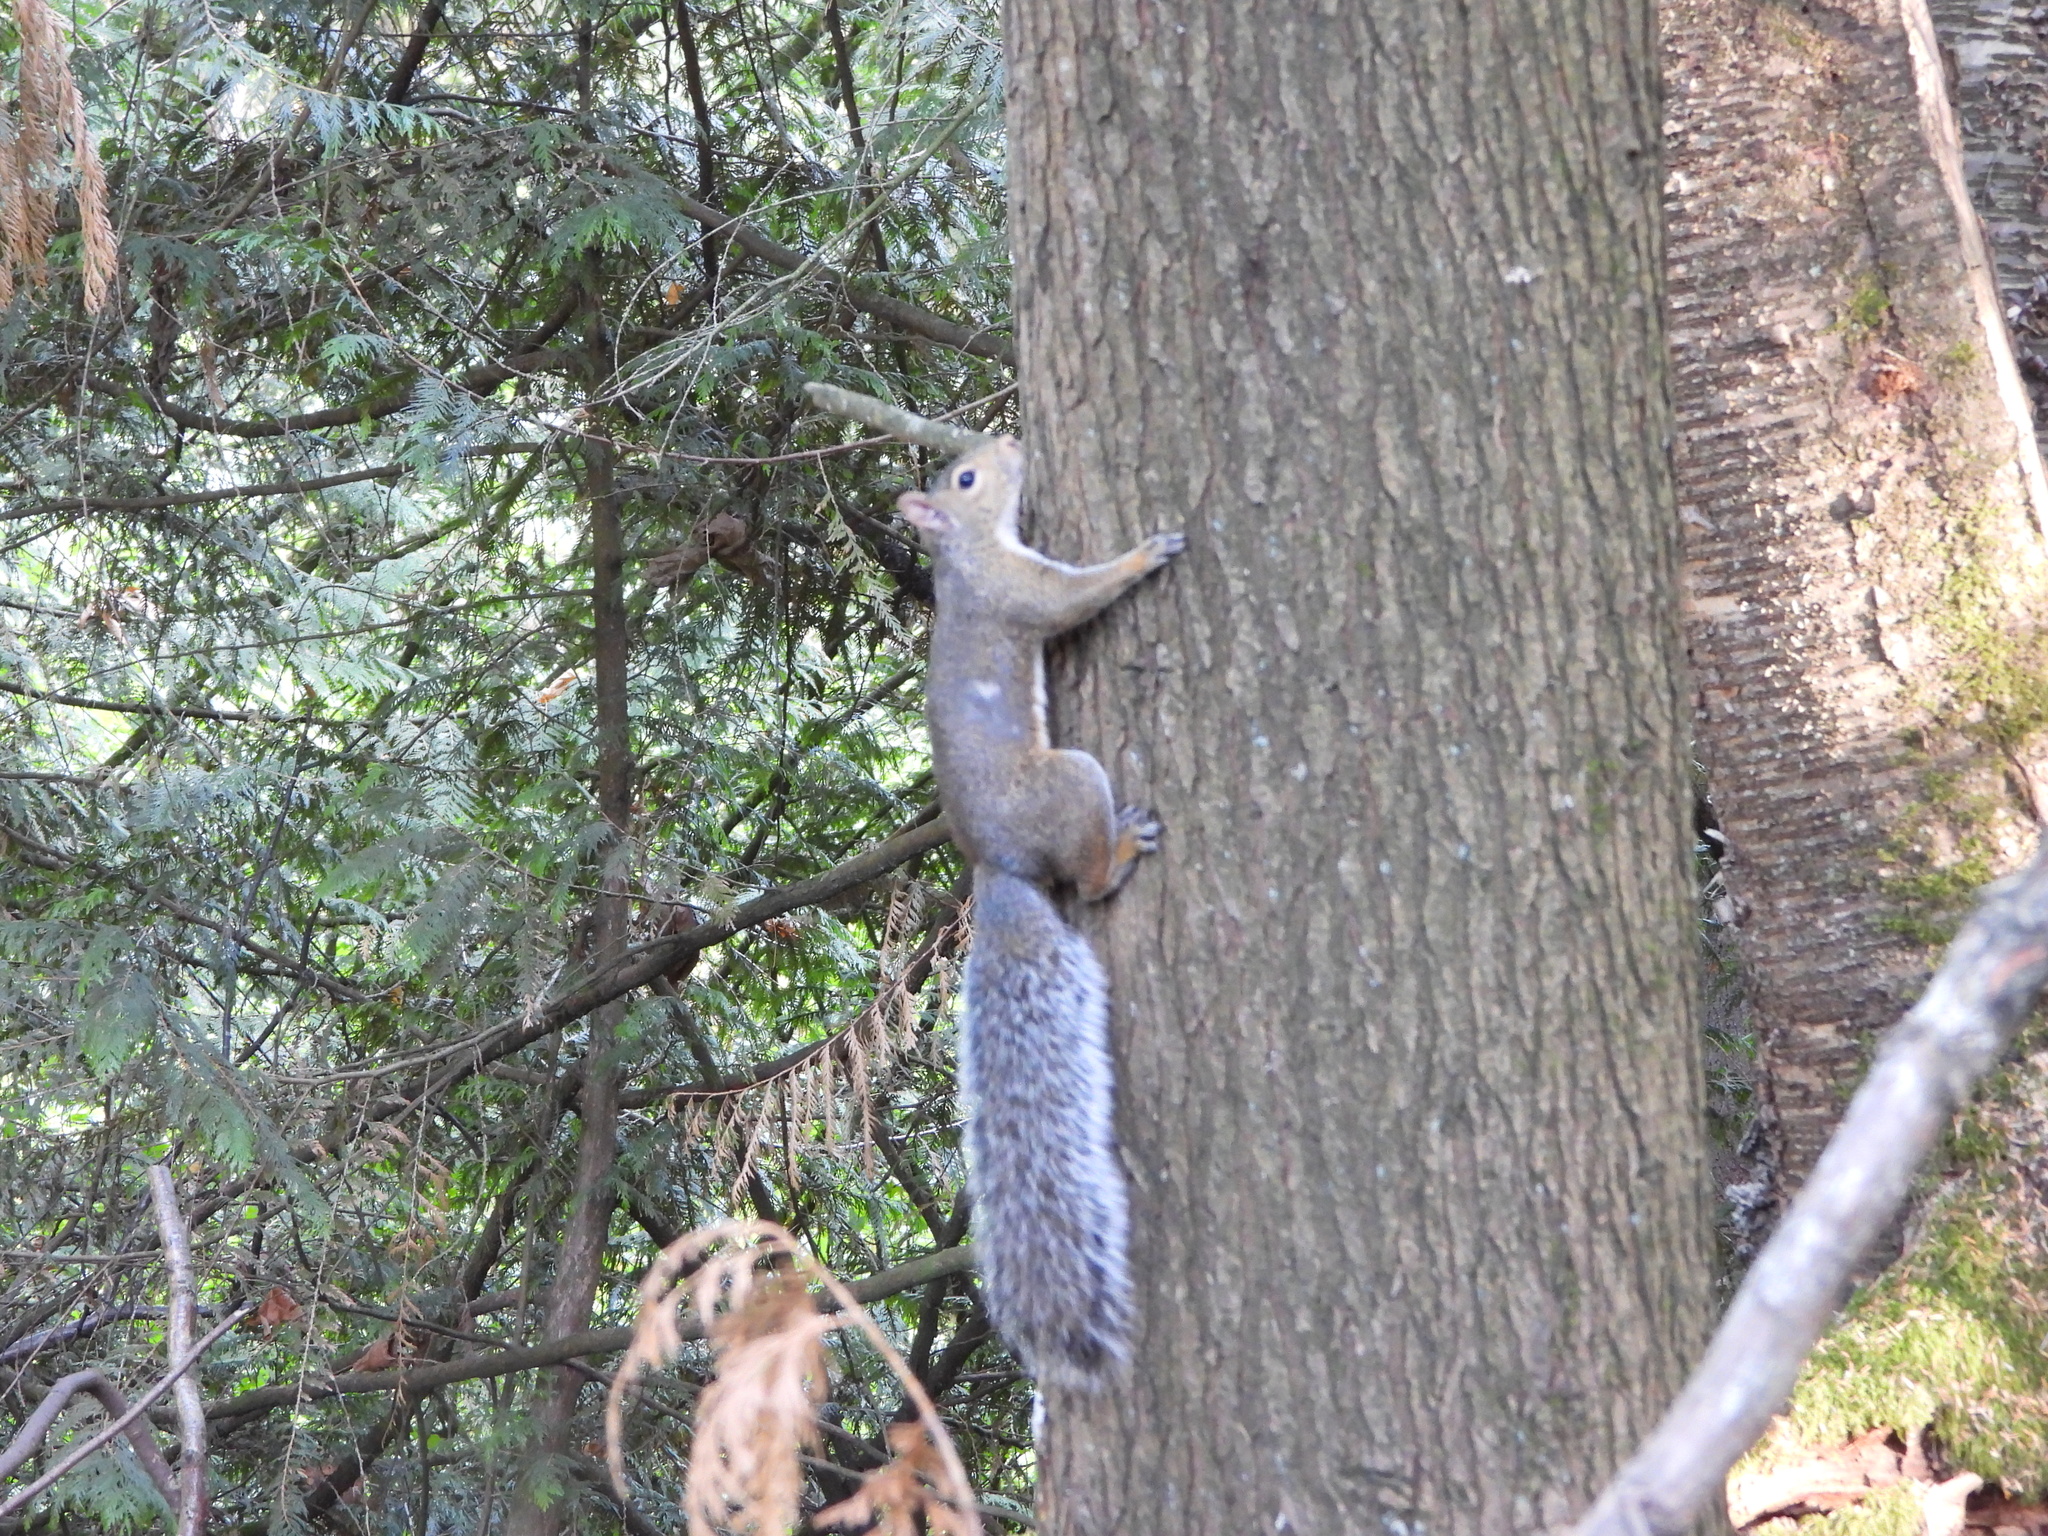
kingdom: Animalia
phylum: Chordata
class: Mammalia
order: Rodentia
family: Sciuridae
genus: Sciurus
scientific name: Sciurus carolinensis
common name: Eastern gray squirrel
